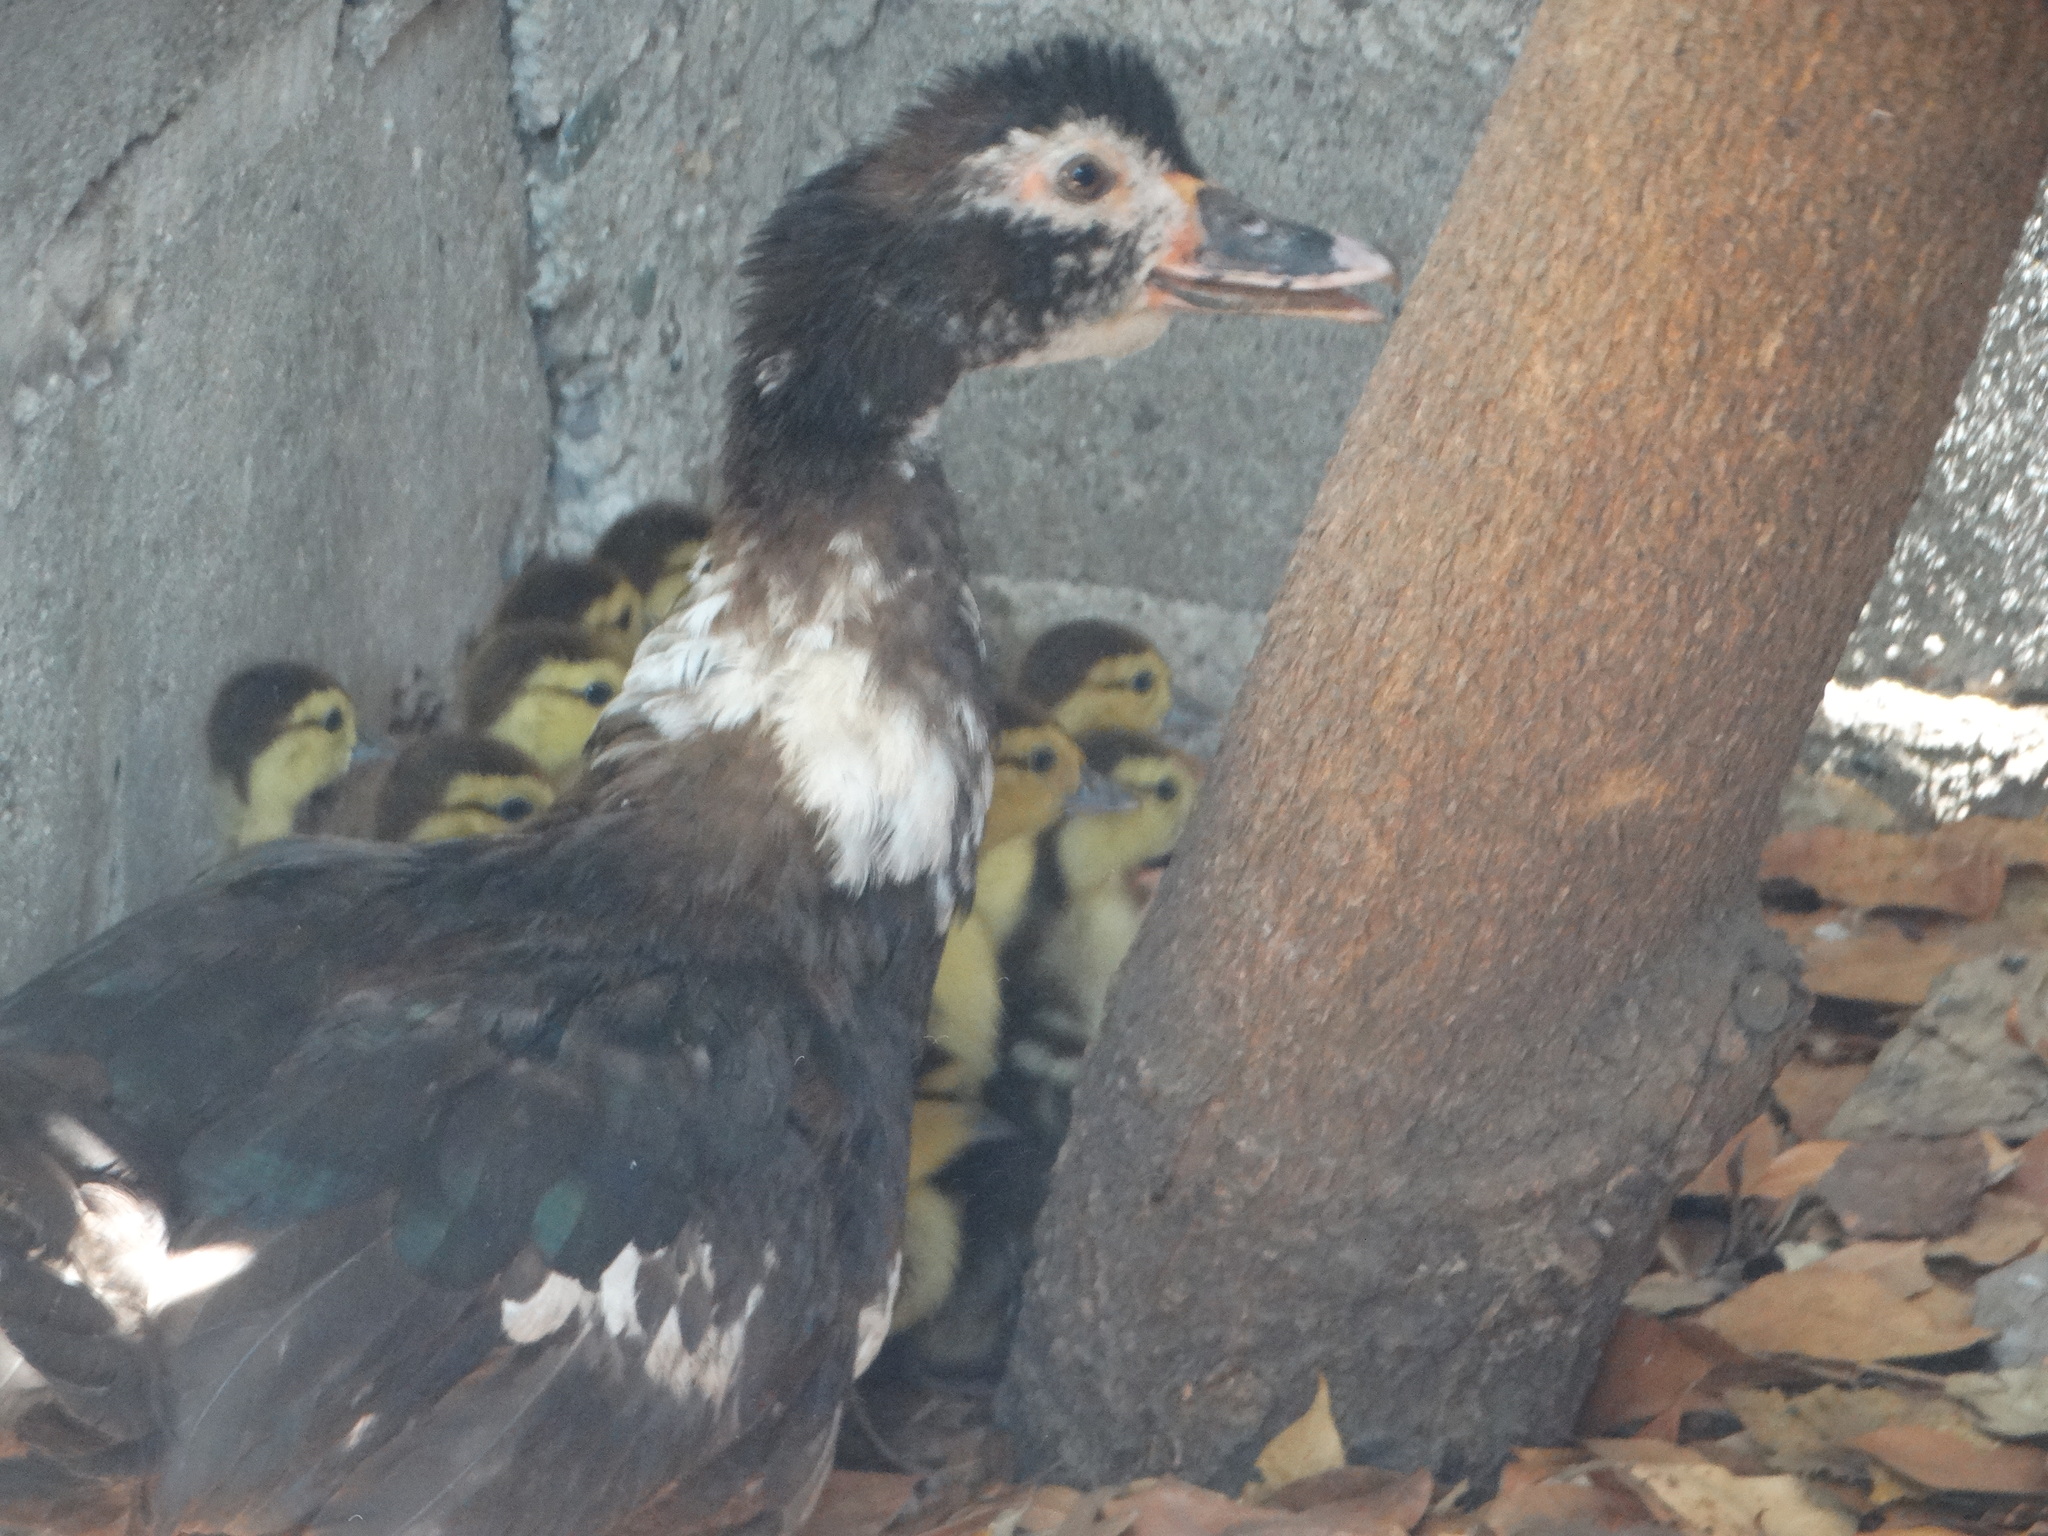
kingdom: Animalia
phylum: Chordata
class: Aves
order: Anseriformes
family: Anatidae
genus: Cairina
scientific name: Cairina moschata
